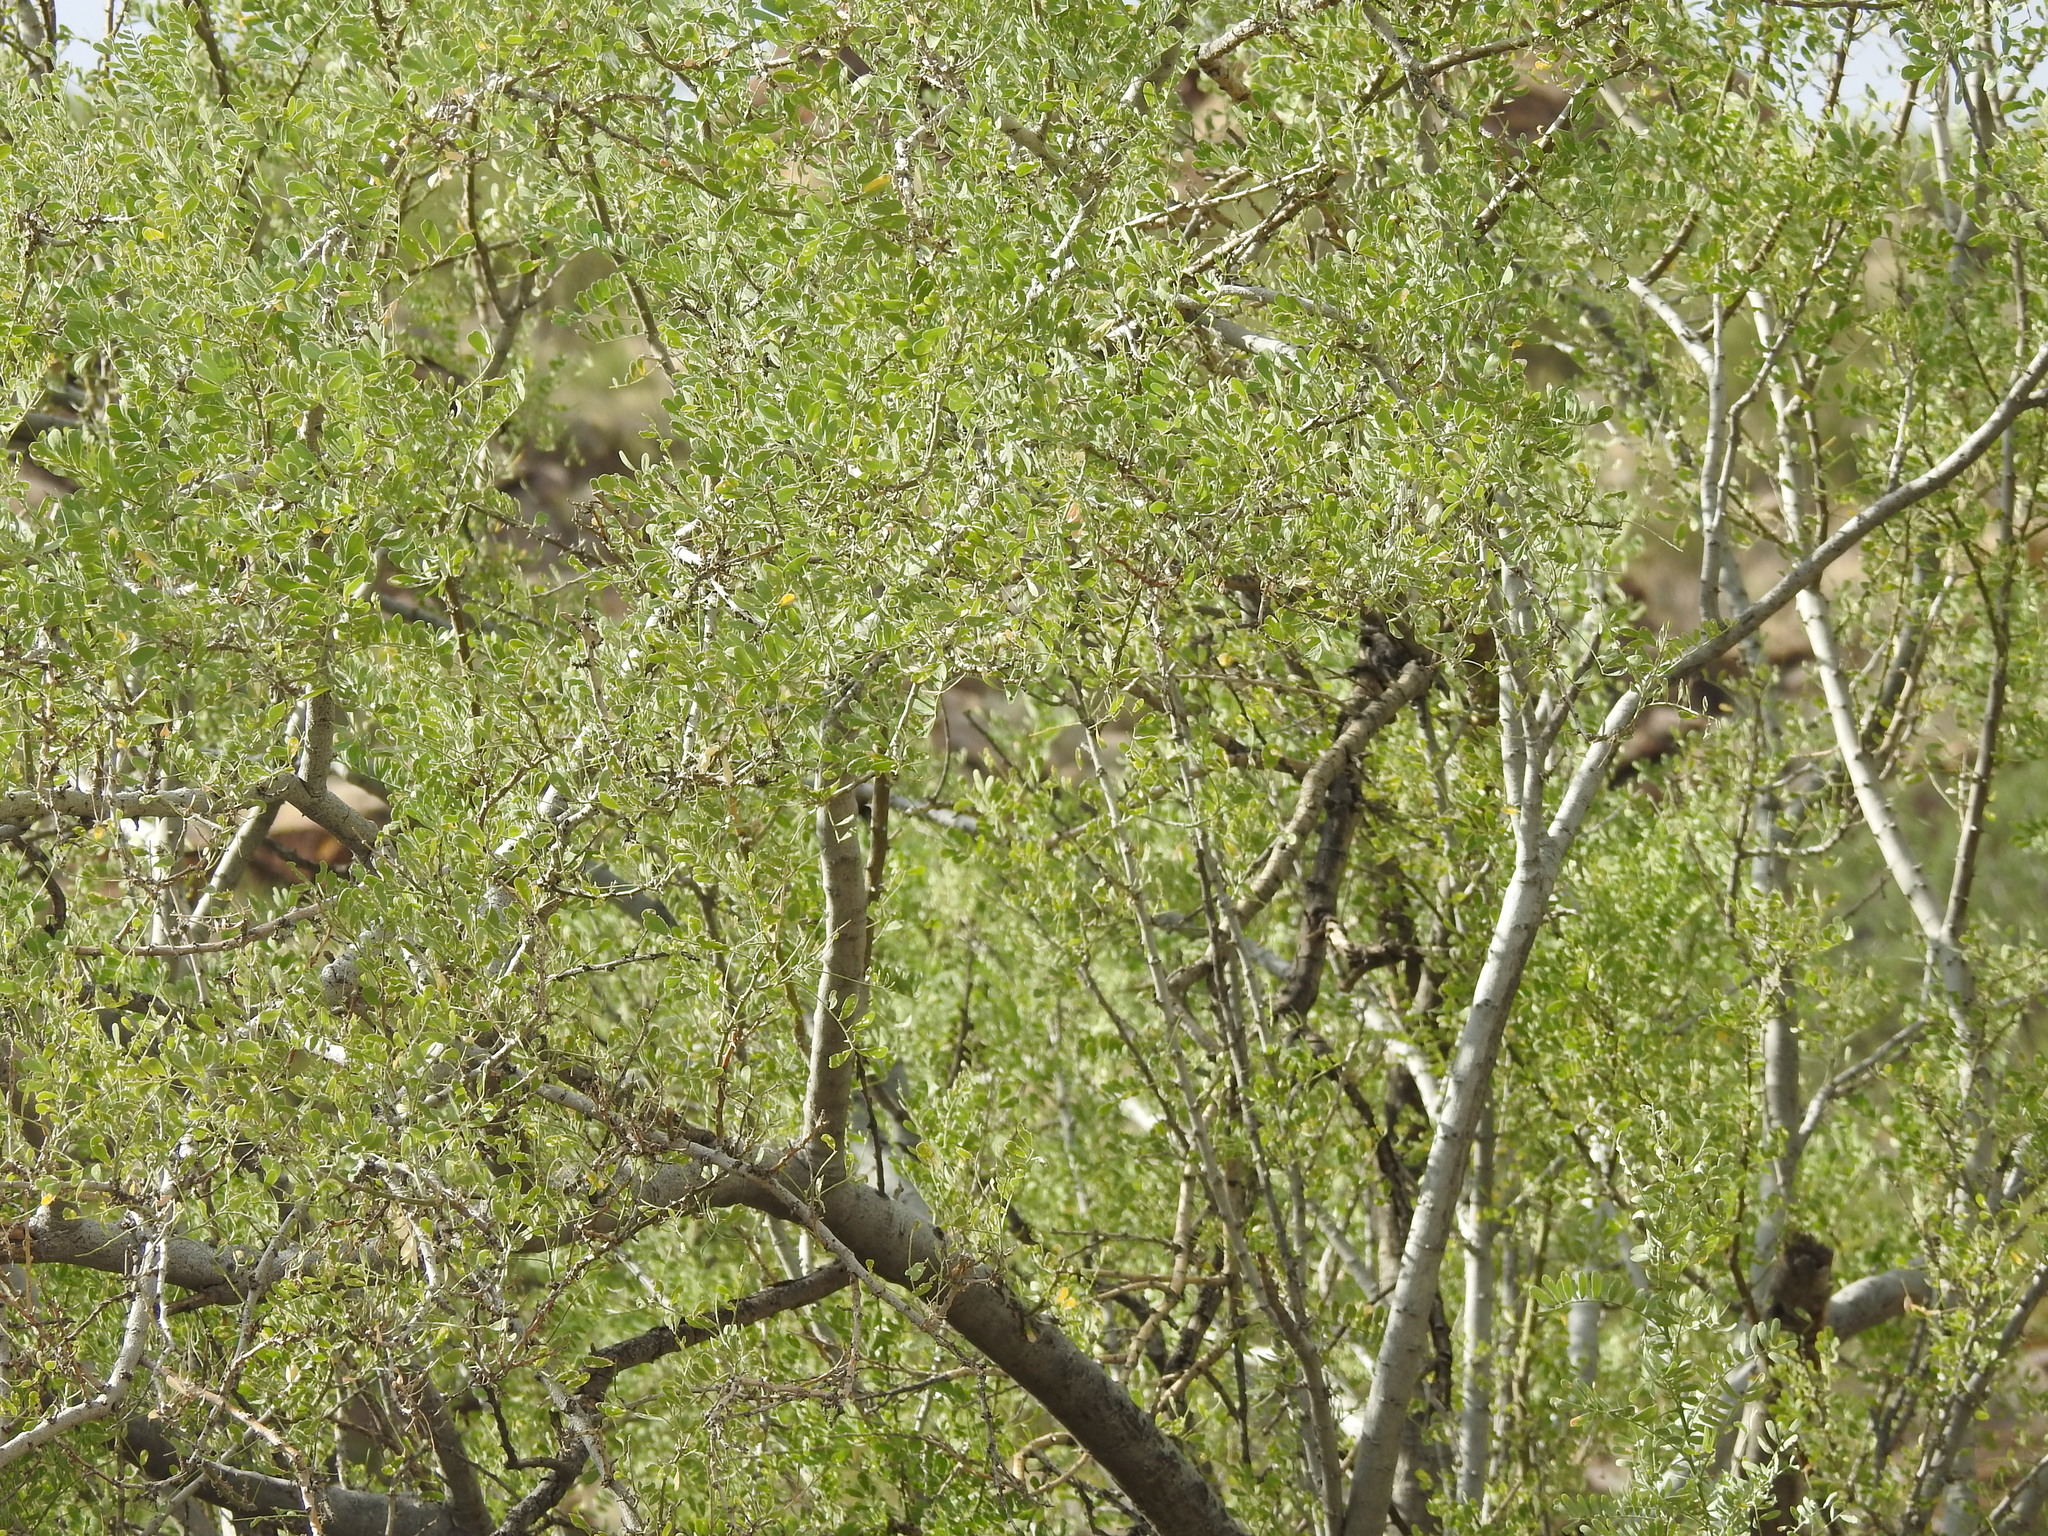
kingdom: Plantae
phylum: Tracheophyta
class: Magnoliopsida
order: Fabales
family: Fabaceae
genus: Olneya
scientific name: Olneya tesota
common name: Desert ironwood
